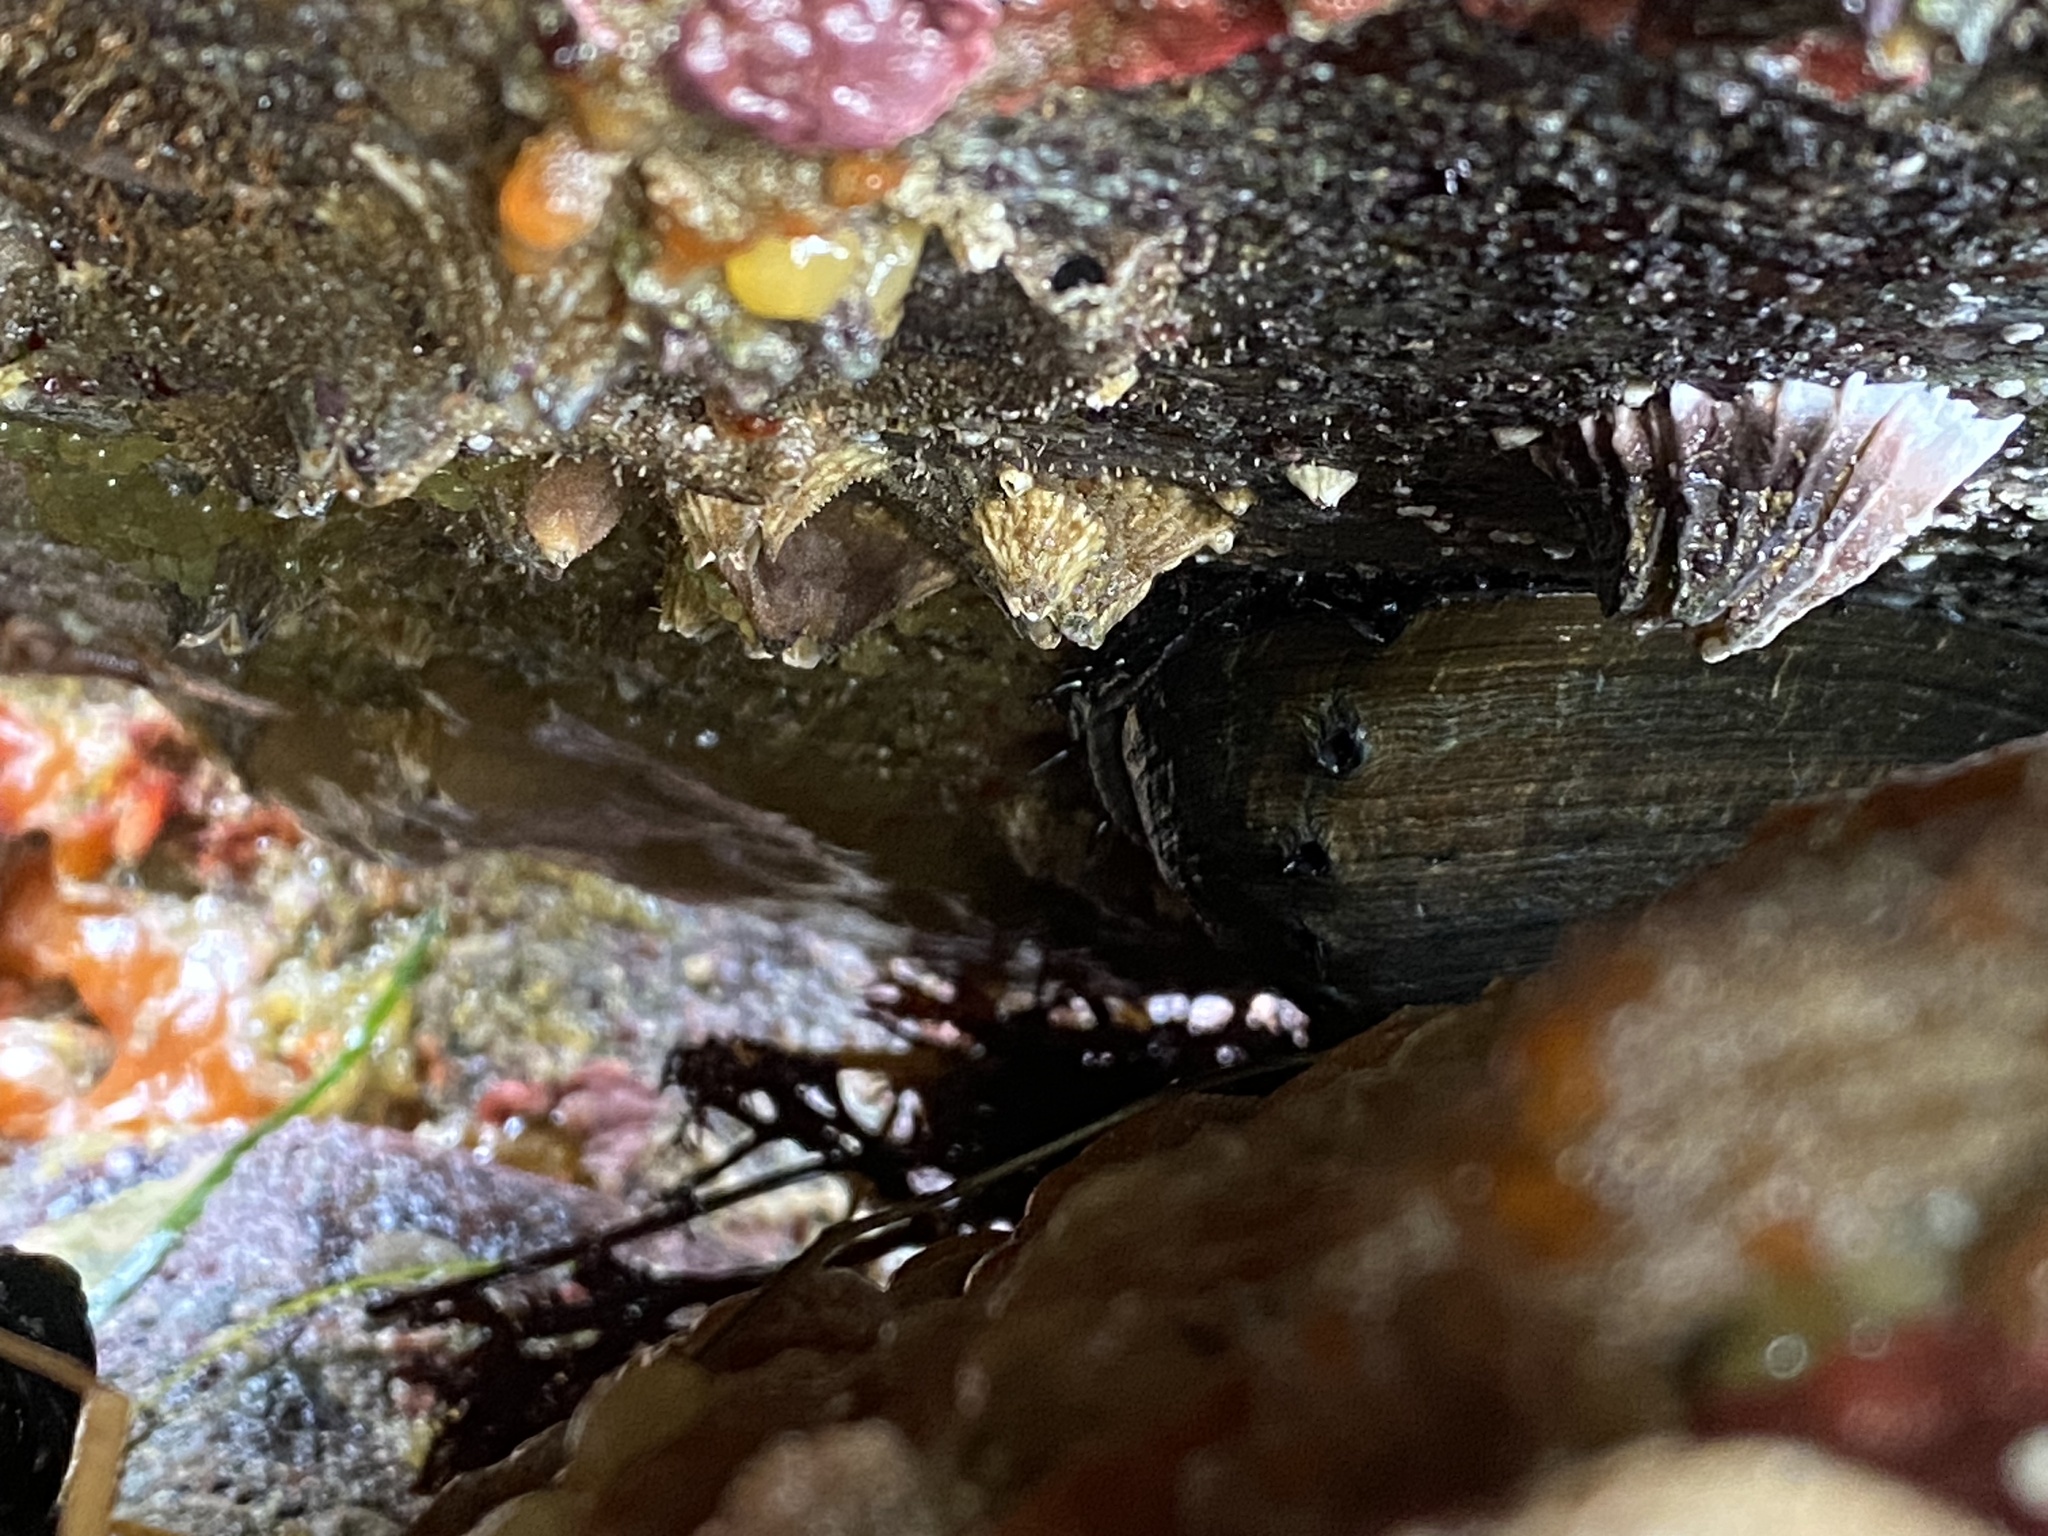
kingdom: Animalia
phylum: Mollusca
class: Gastropoda
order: Lepetellida
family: Haliotidae
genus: Haliotis
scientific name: Haliotis cracherodii
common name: Black abalone
